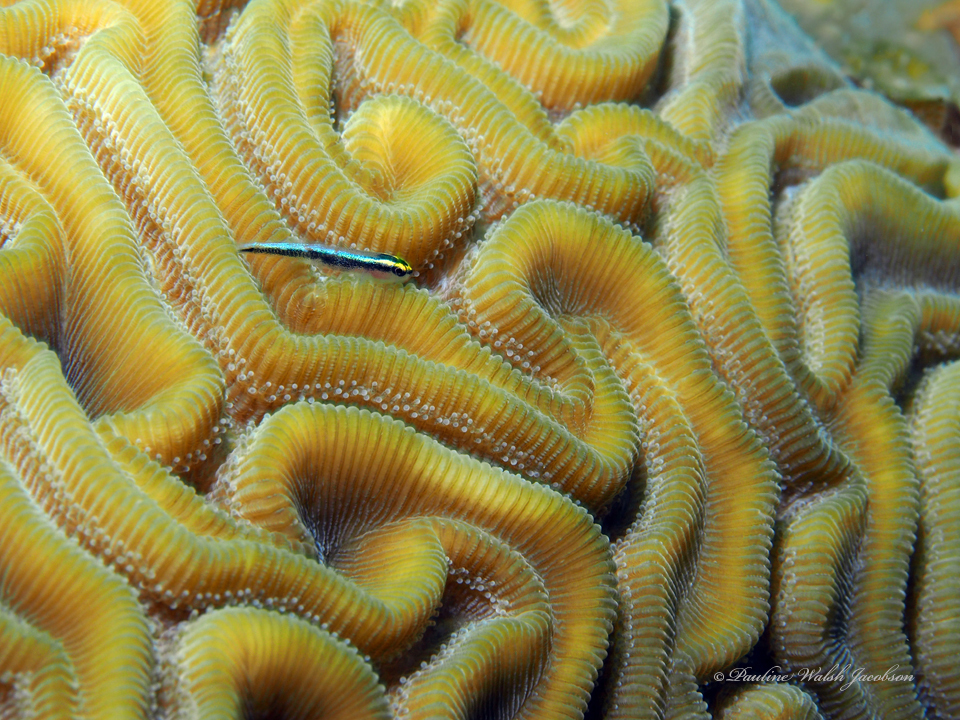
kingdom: Animalia
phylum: Chordata
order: Perciformes
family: Gobiidae
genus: Elacatinus
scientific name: Elacatinus evelynae
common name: Sharknose goby
